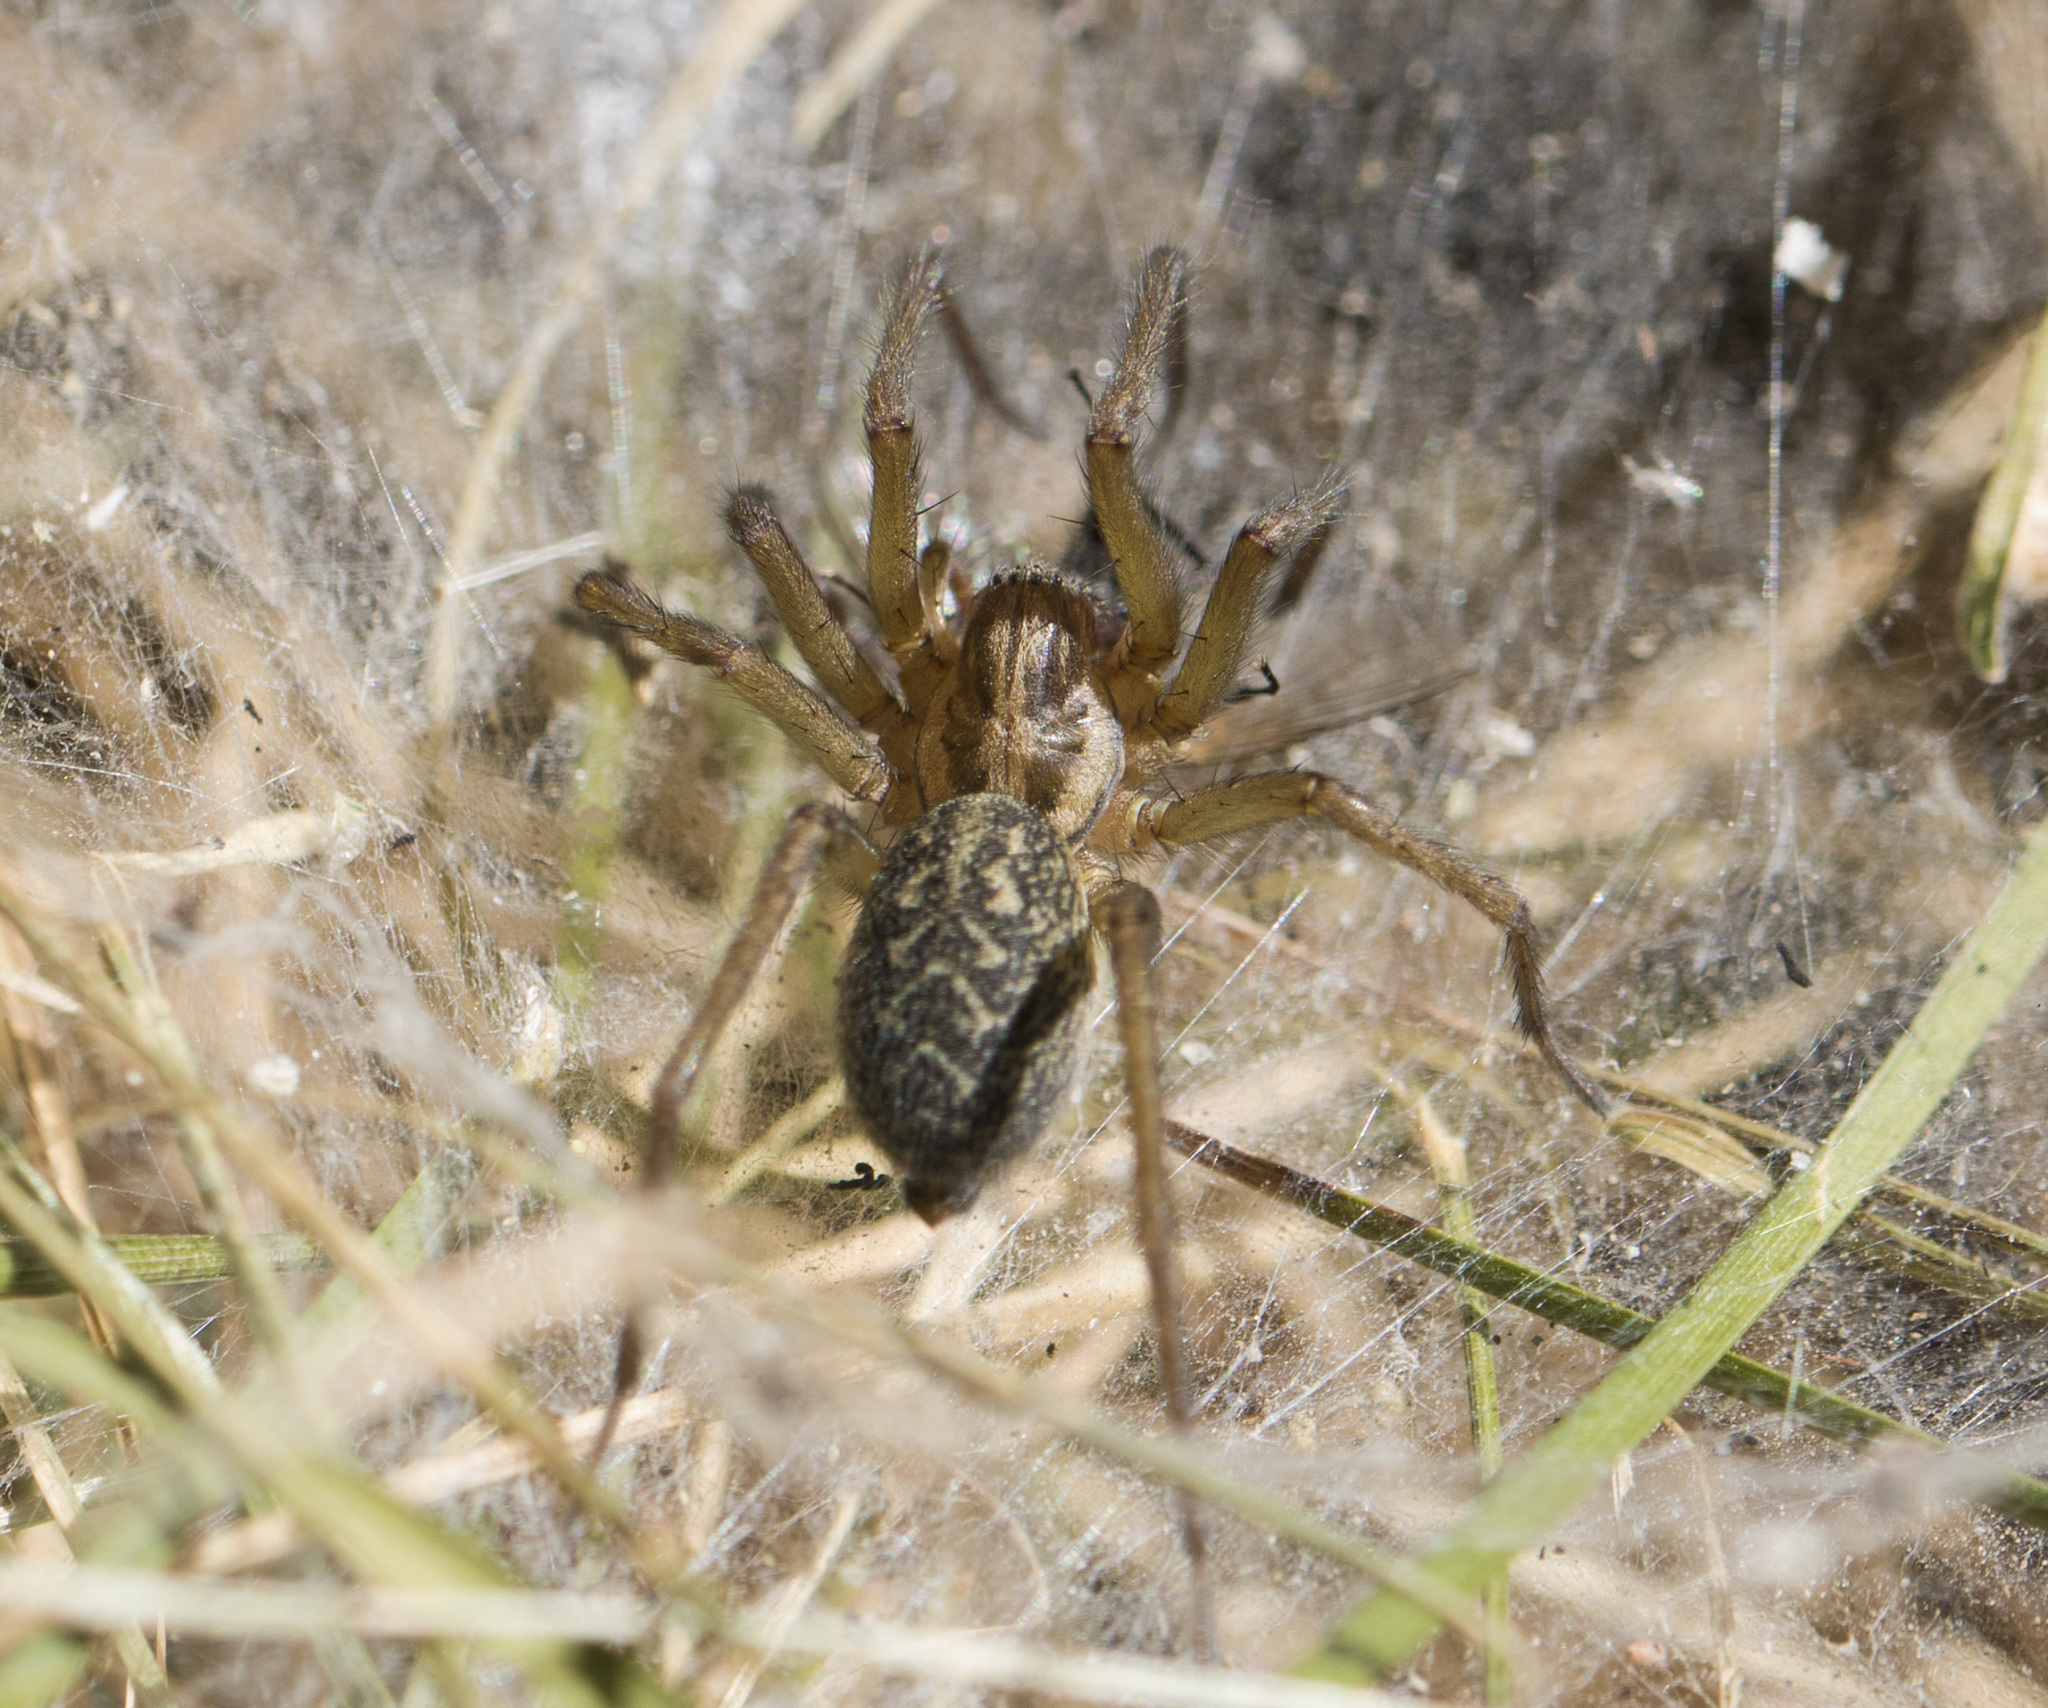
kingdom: Animalia
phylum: Arthropoda
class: Arachnida
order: Araneae
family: Agelenidae
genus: Eratigena
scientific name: Eratigena agrestis
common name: Hobo spider
